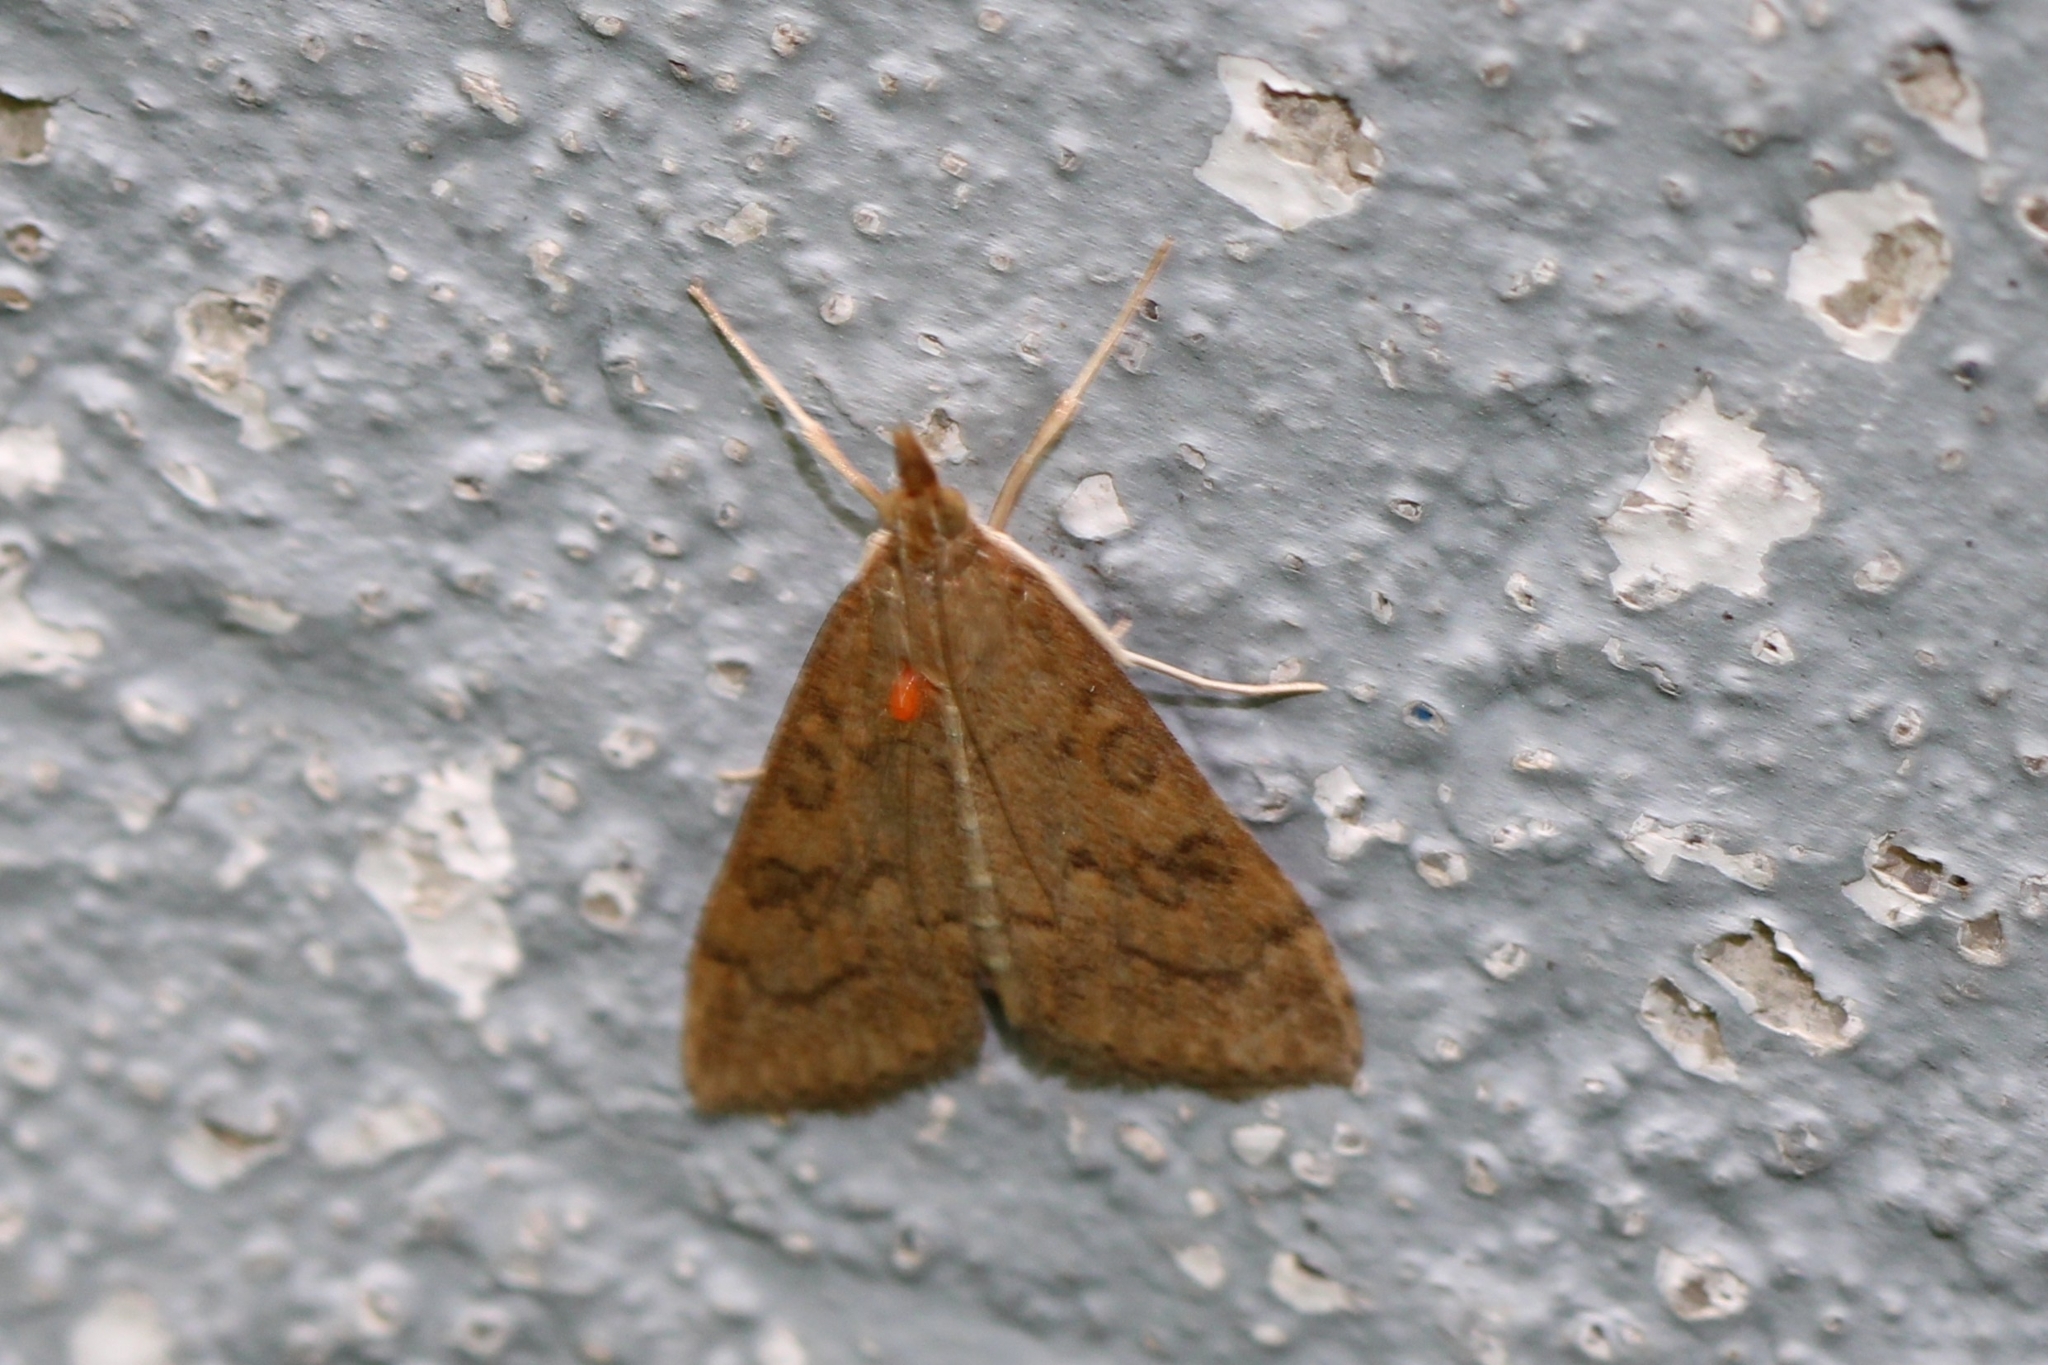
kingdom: Animalia
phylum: Arthropoda
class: Insecta
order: Lepidoptera
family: Crambidae
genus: Udea
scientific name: Udea rubigalis
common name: Celery leaftier moth
